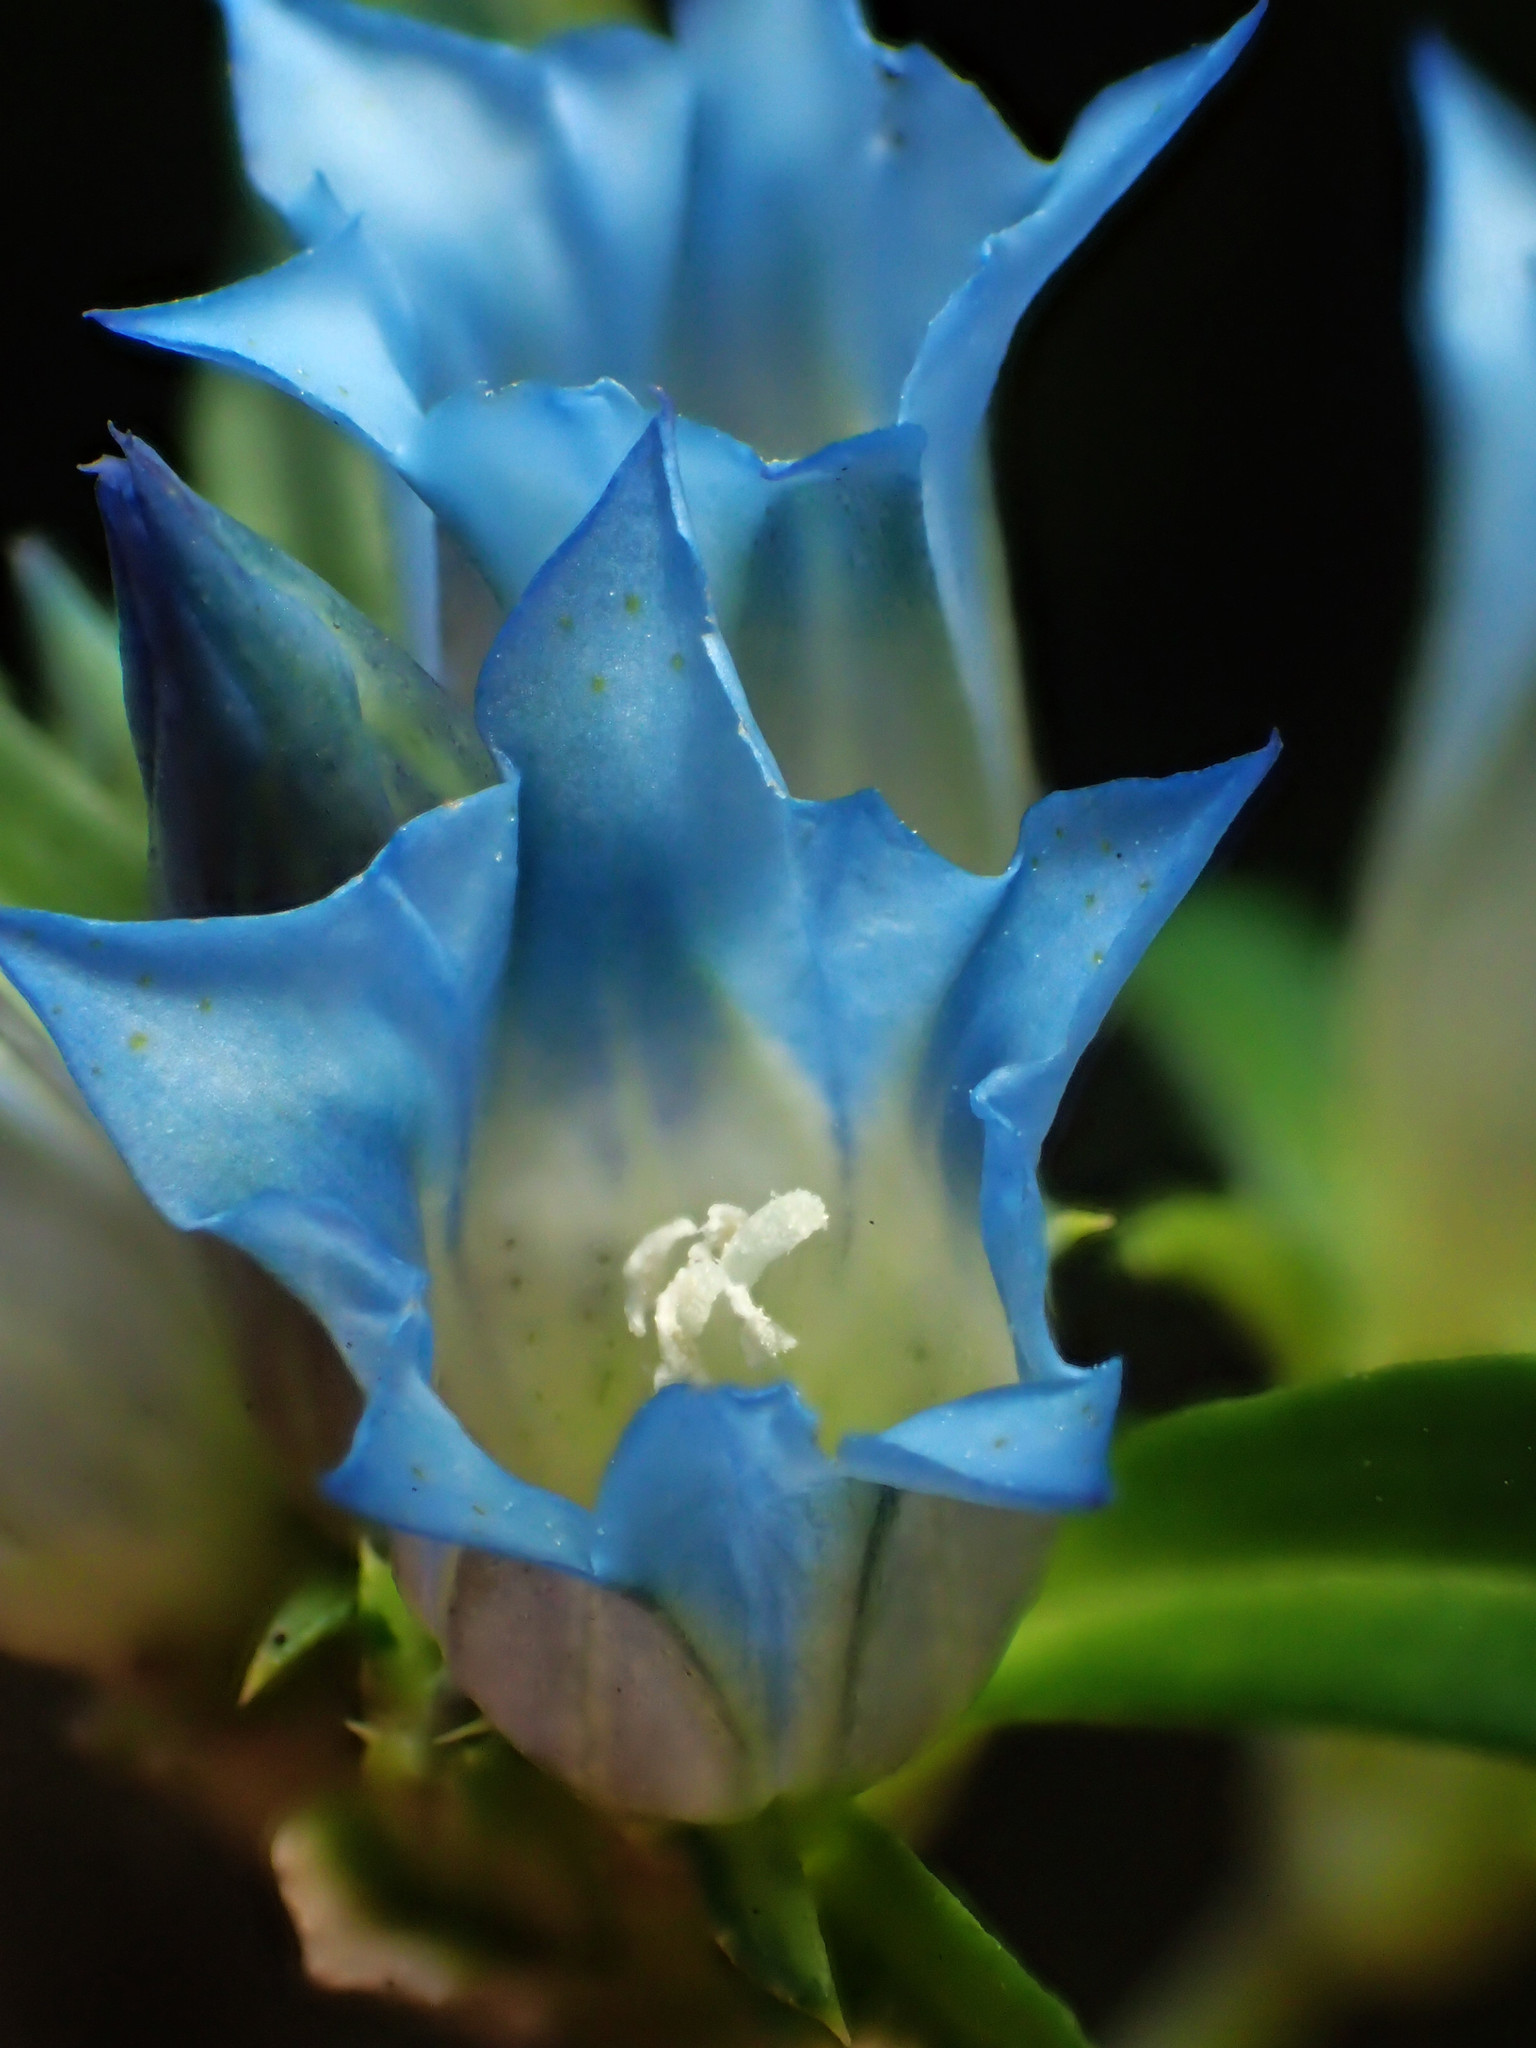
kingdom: Plantae
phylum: Tracheophyta
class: Magnoliopsida
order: Gentianales
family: Gentianaceae
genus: Gentiana
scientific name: Gentiana davidii
